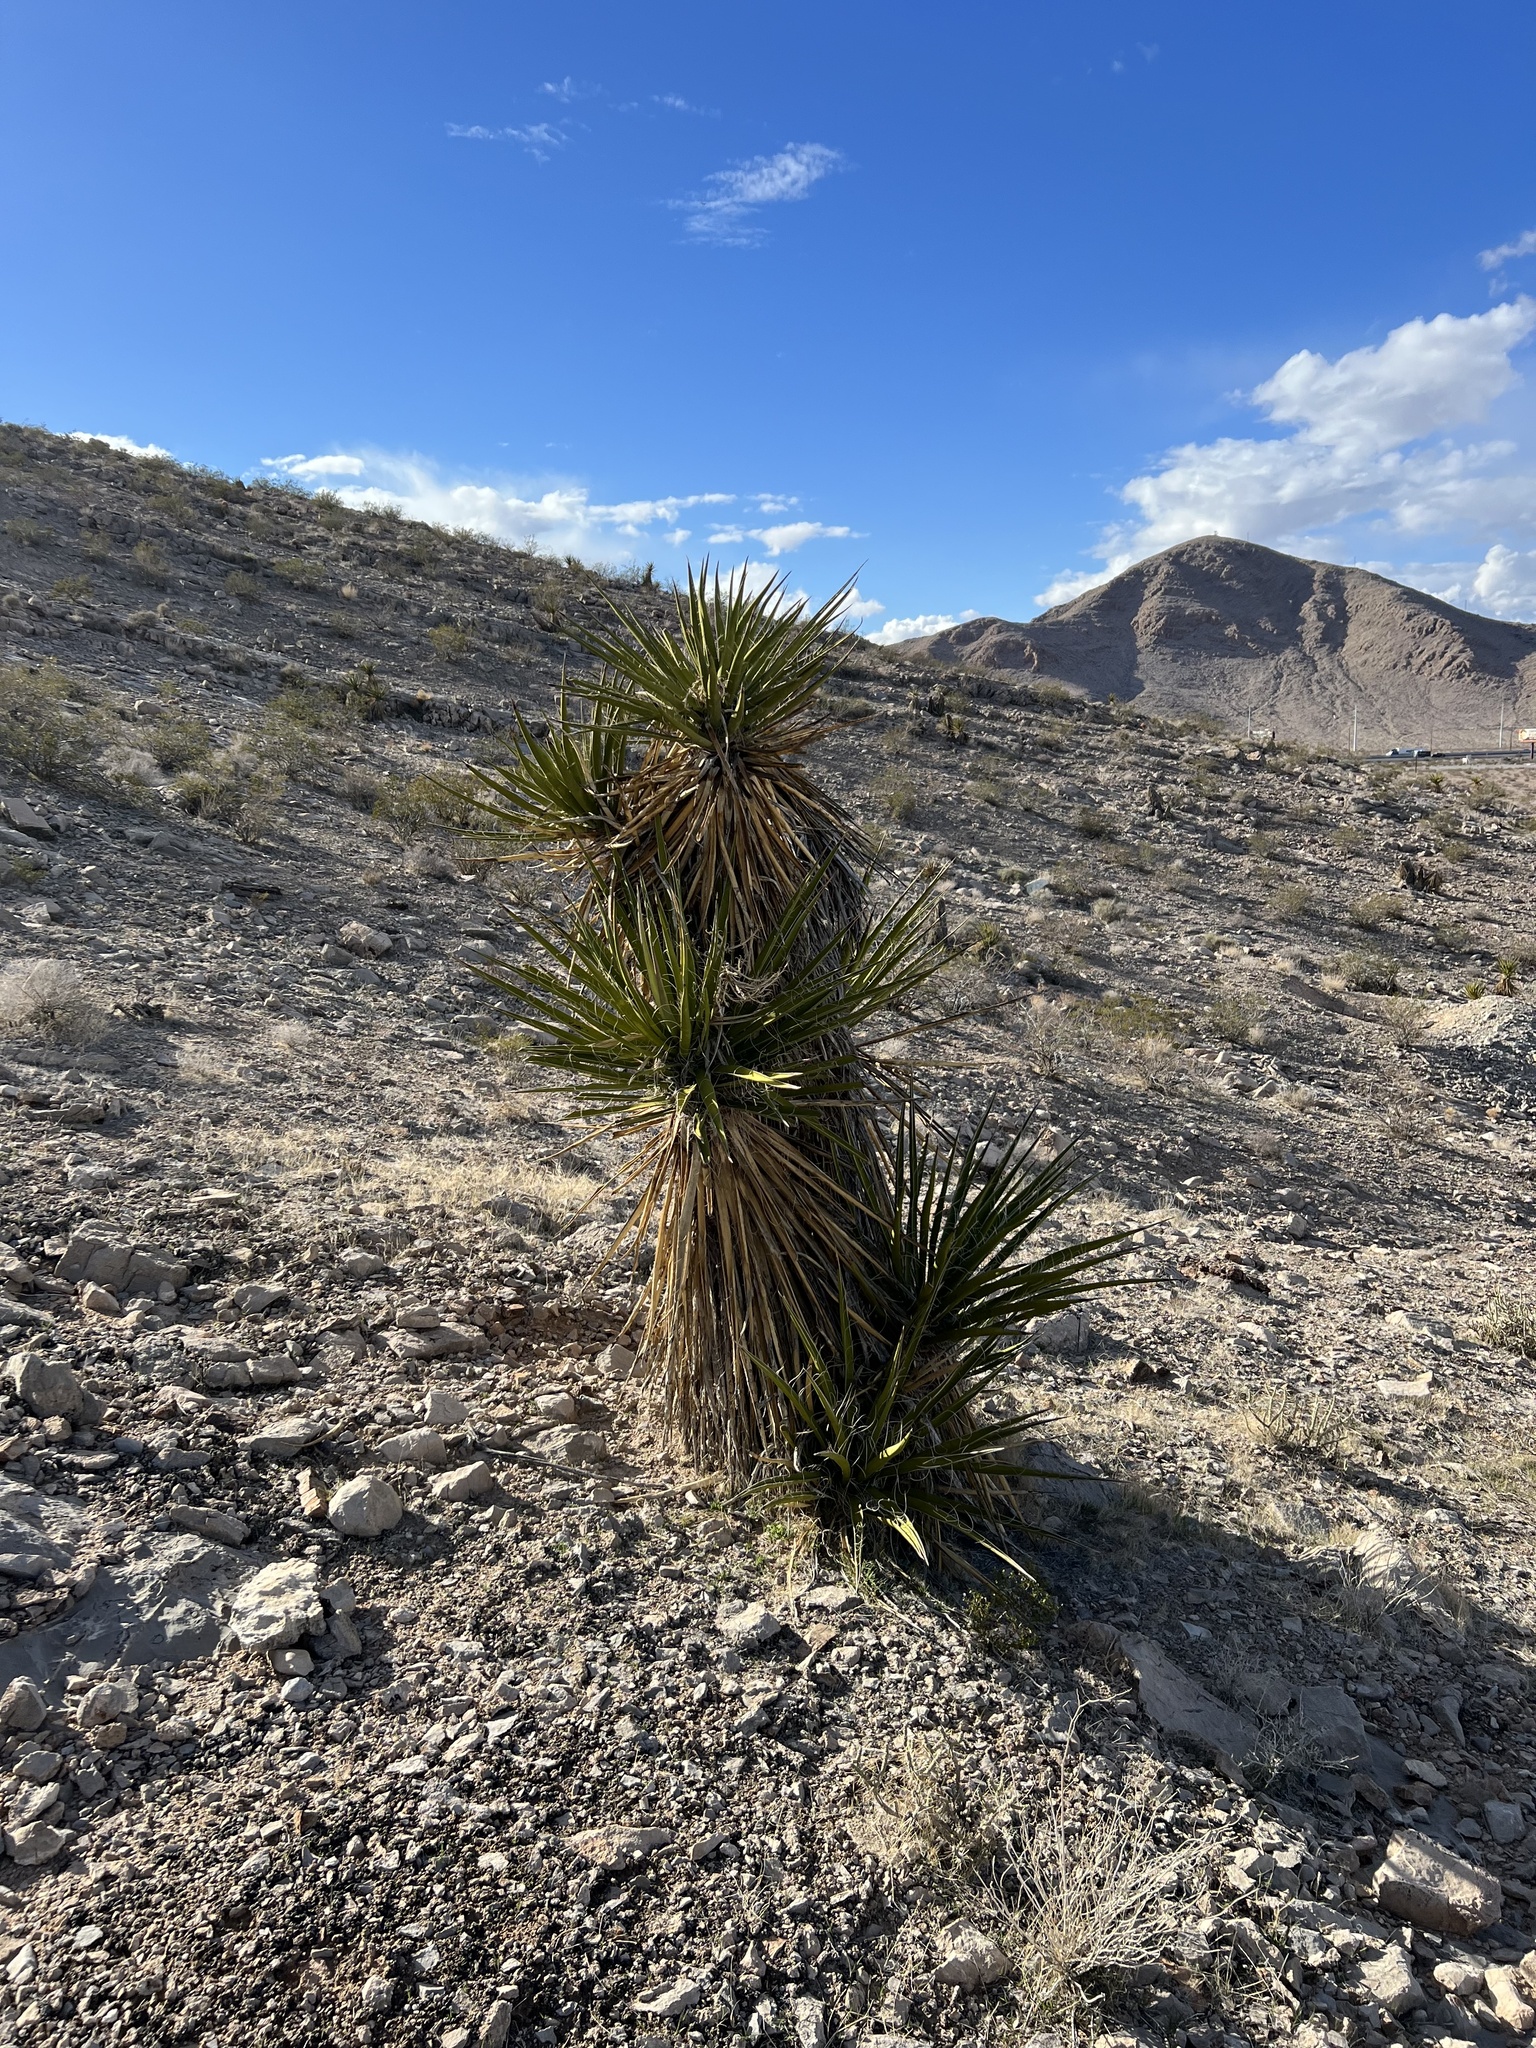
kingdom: Plantae
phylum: Tracheophyta
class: Liliopsida
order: Asparagales
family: Asparagaceae
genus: Yucca
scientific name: Yucca schidigera
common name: Mojave yucca
